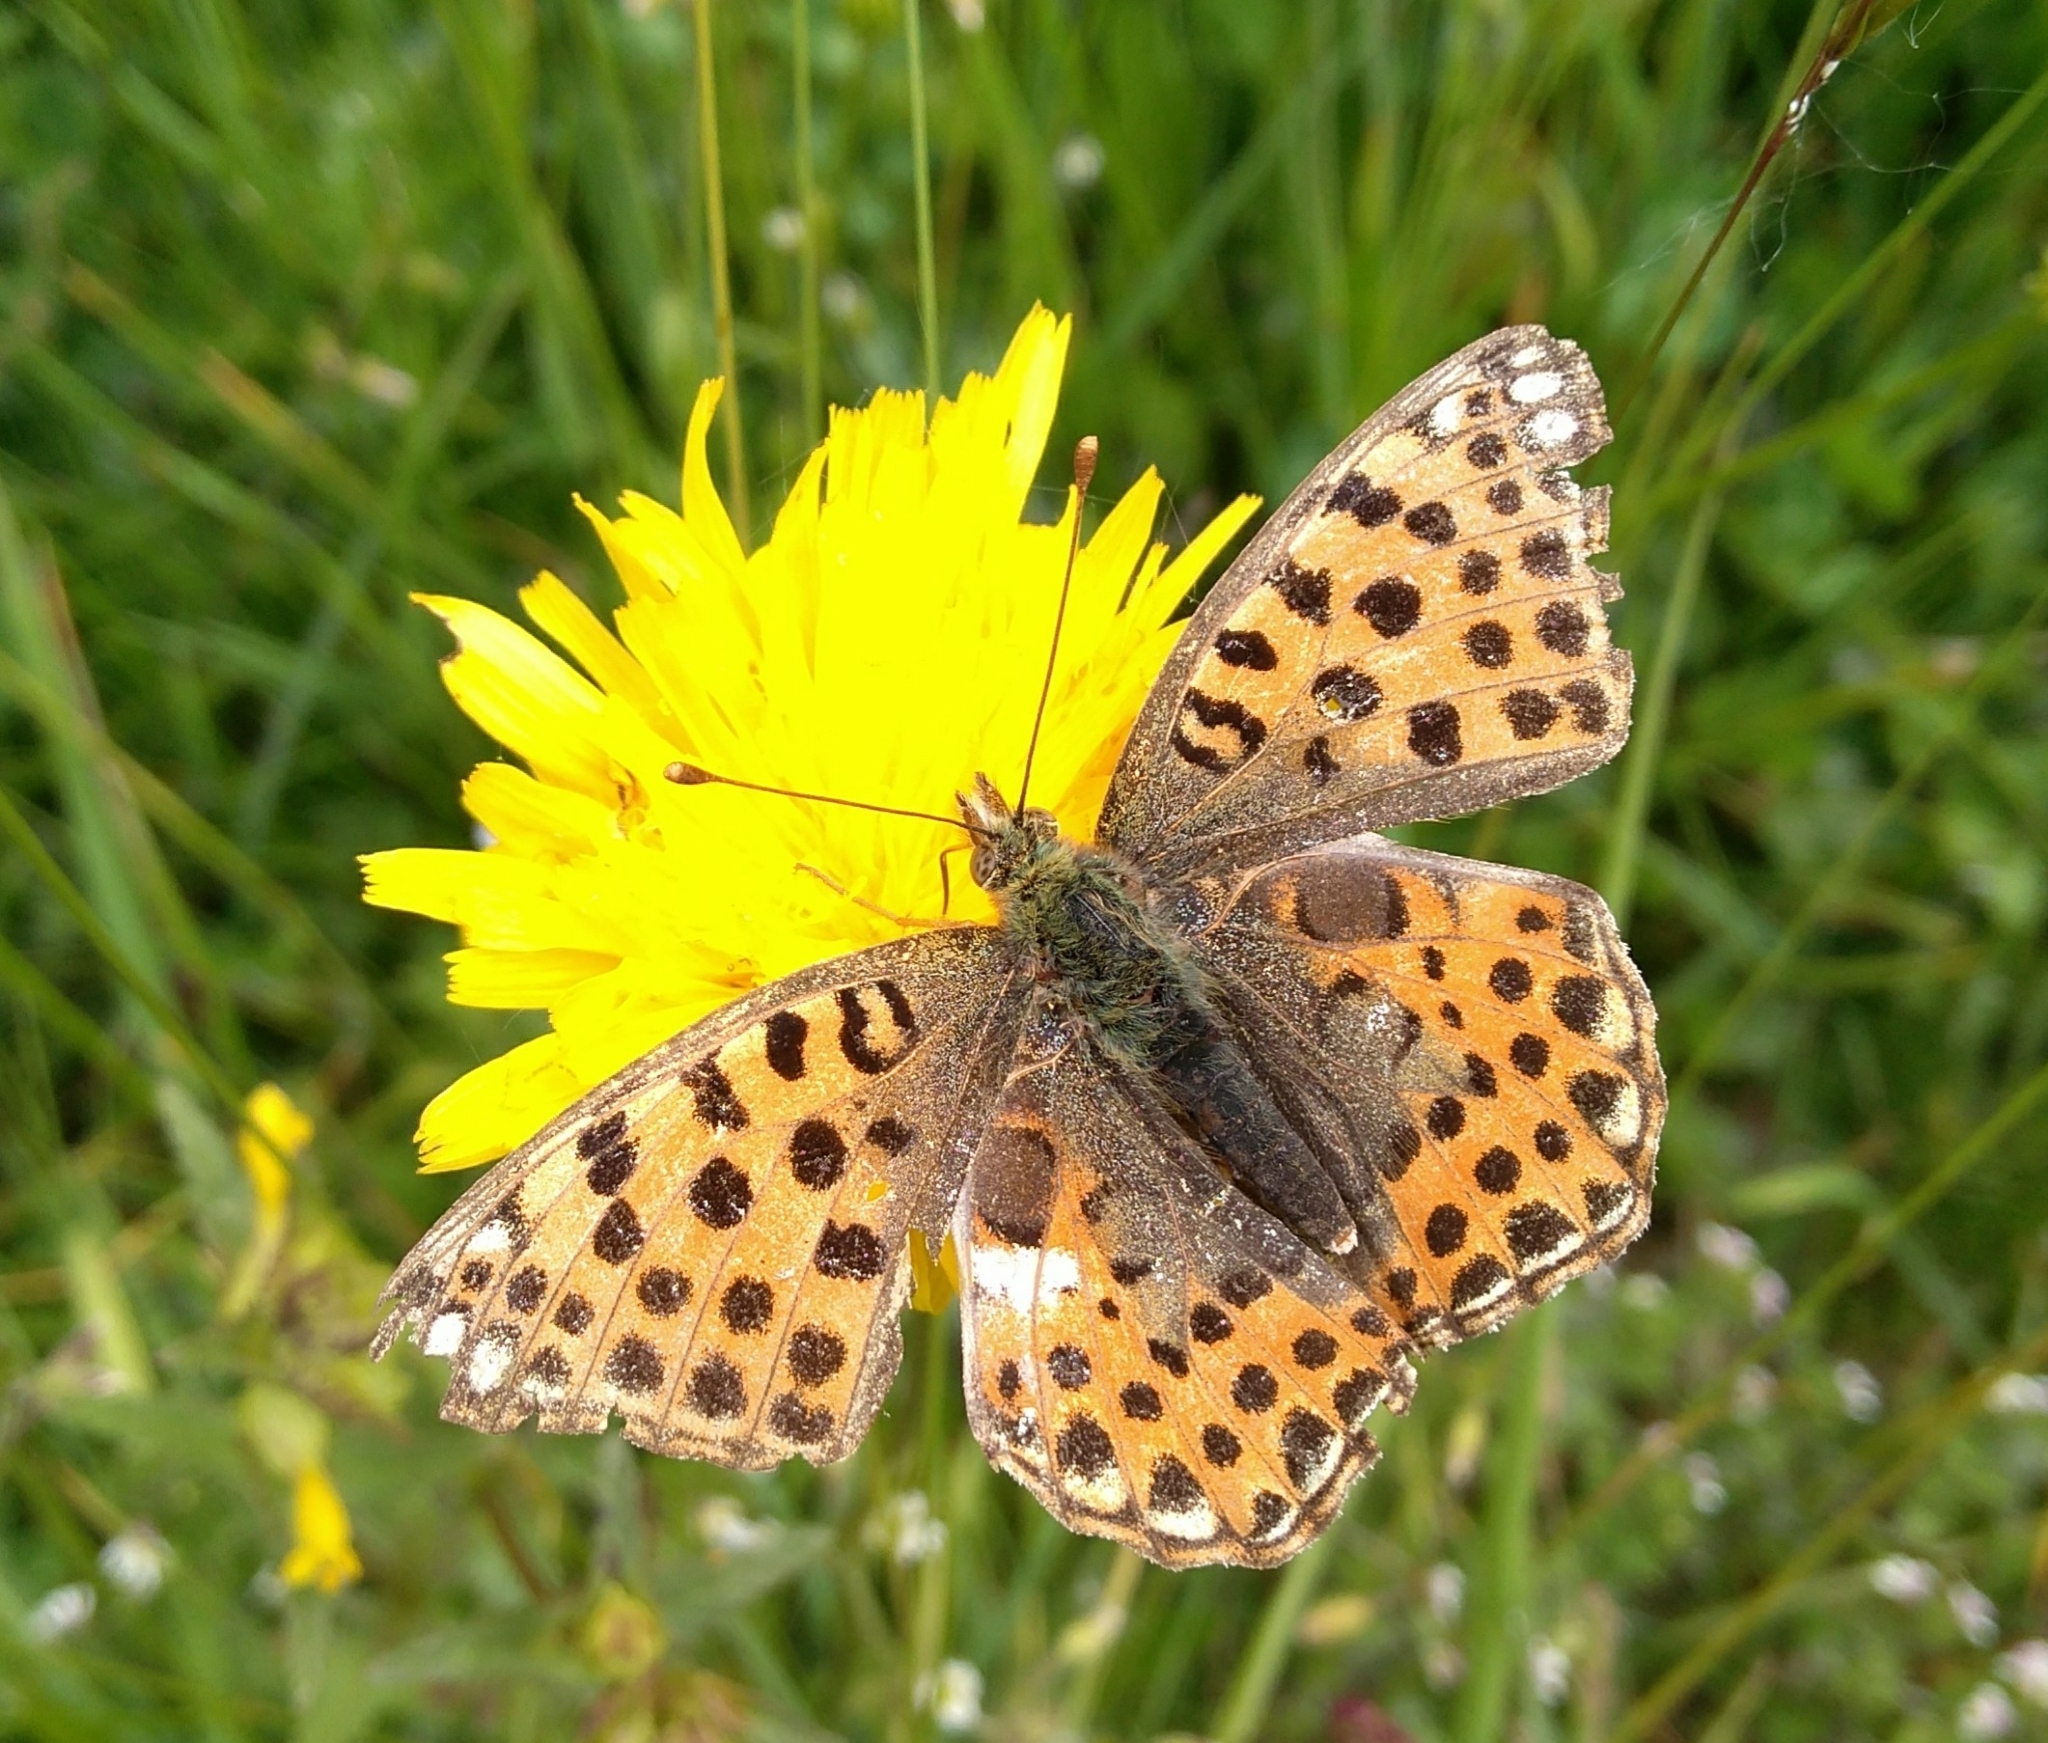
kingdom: Animalia
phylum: Arthropoda
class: Insecta
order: Lepidoptera
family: Nymphalidae
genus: Issoria
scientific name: Issoria lathonia
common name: Queen of spain fritillary
